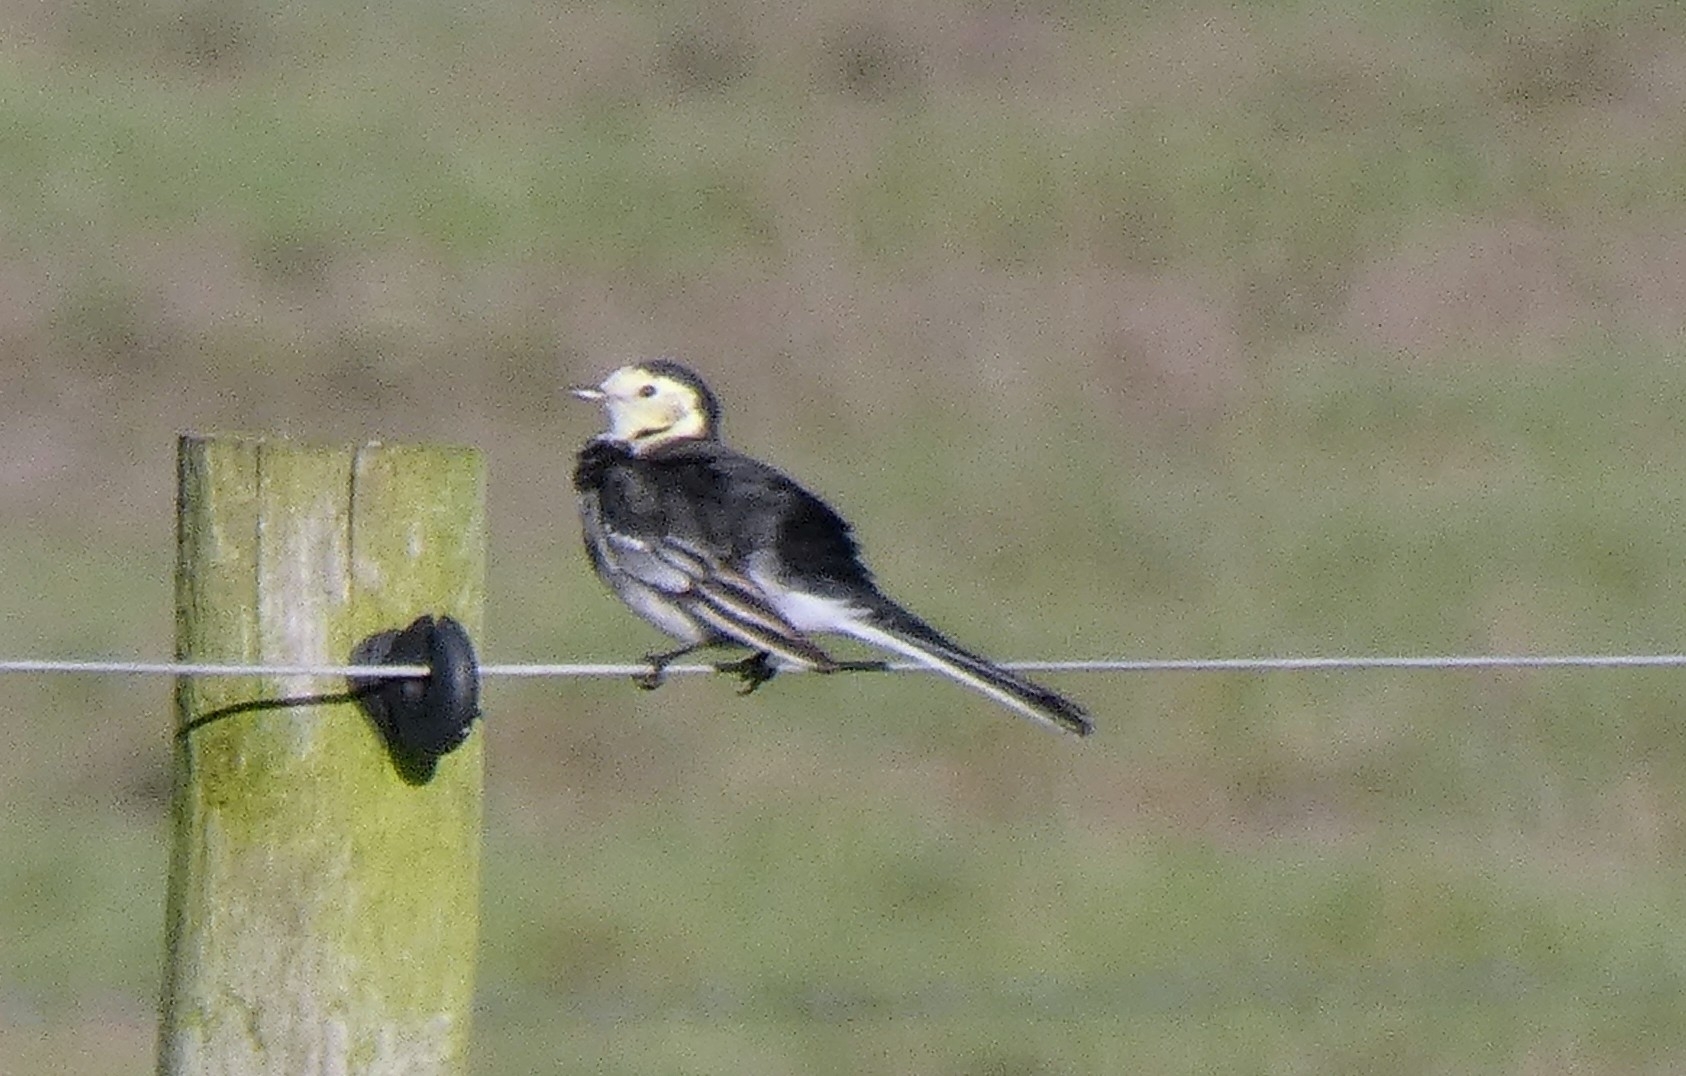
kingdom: Animalia
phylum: Chordata
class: Aves
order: Passeriformes
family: Motacillidae
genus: Motacilla
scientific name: Motacilla alba
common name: White wagtail
